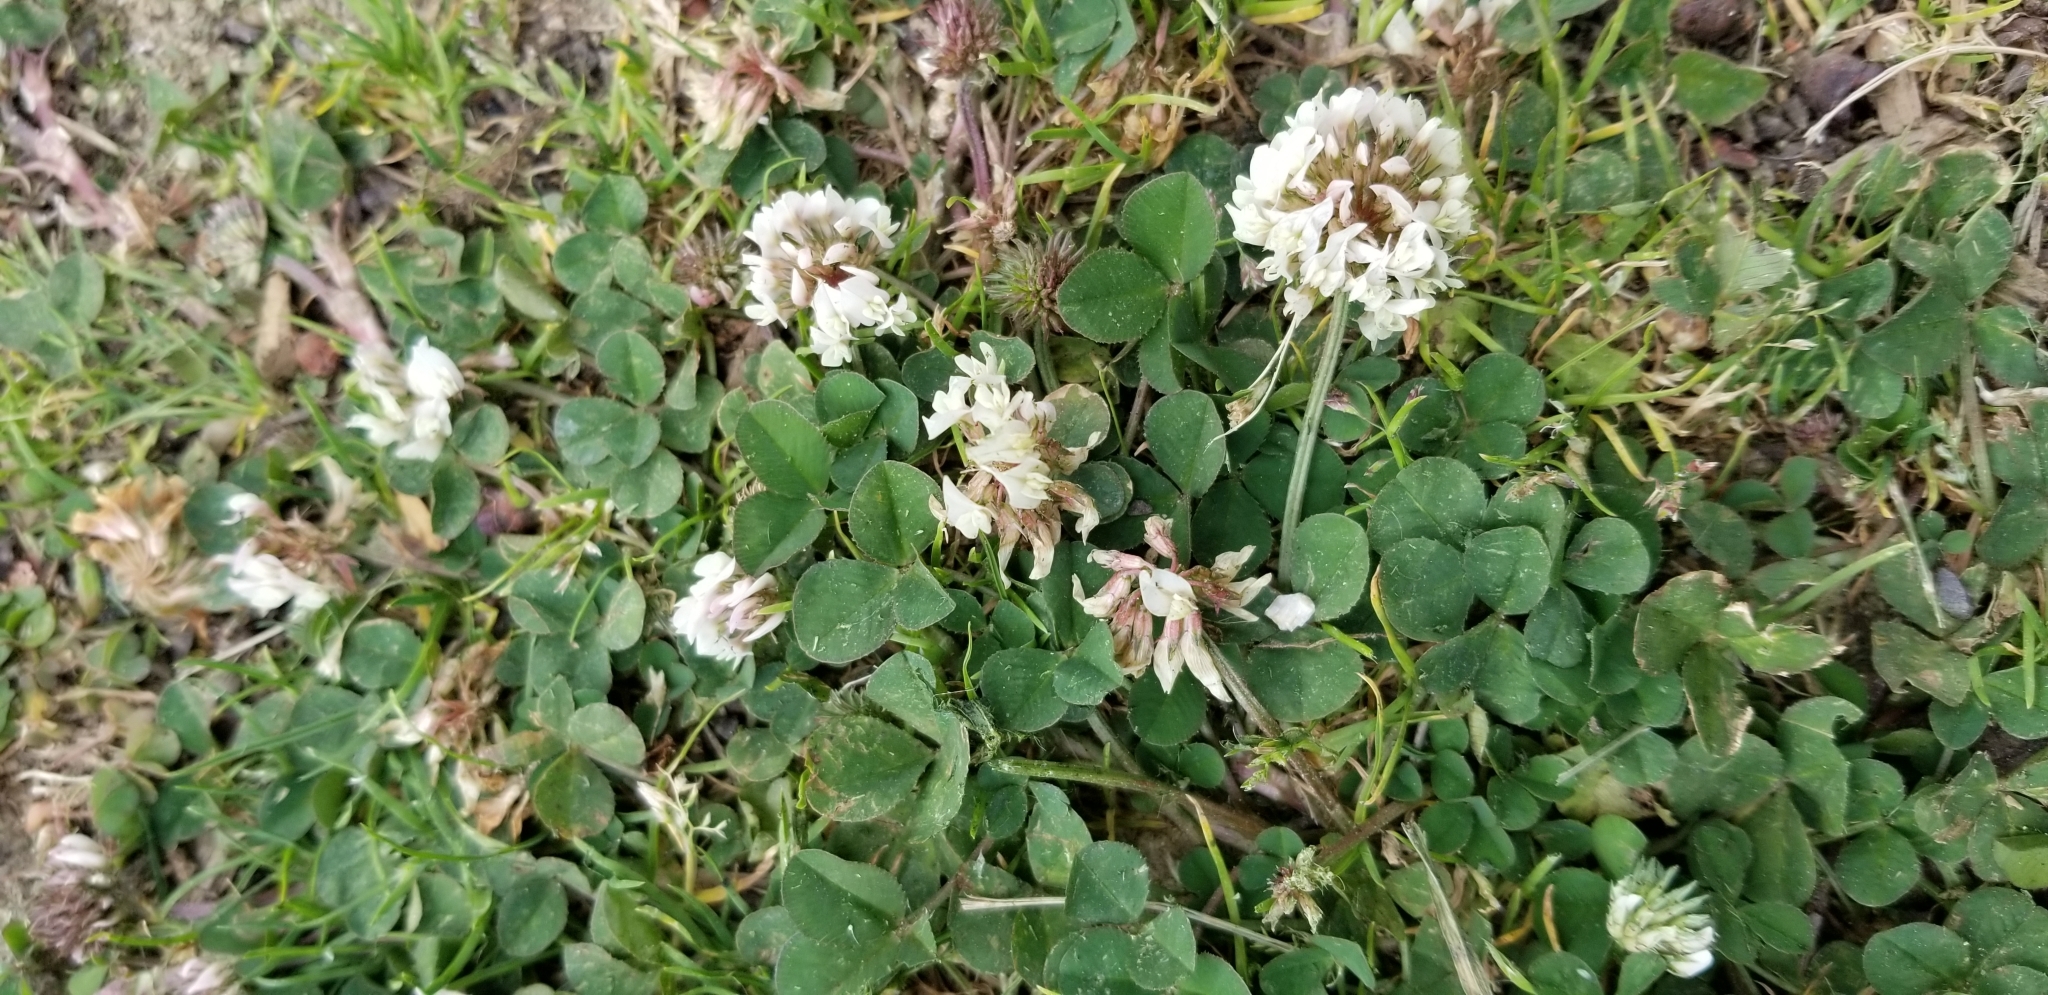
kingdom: Plantae
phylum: Tracheophyta
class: Magnoliopsida
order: Fabales
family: Fabaceae
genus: Trifolium
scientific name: Trifolium repens
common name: White clover
